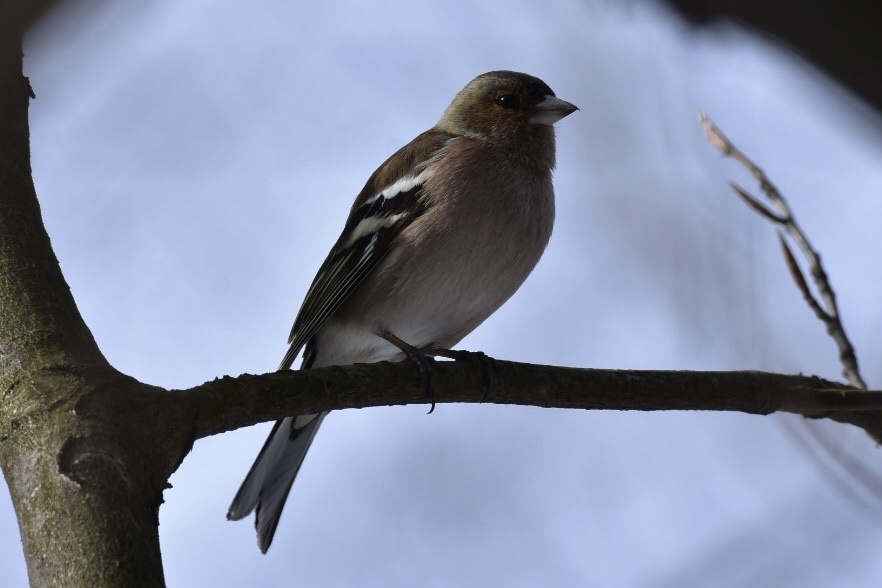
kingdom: Animalia
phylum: Chordata
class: Aves
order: Passeriformes
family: Fringillidae
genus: Fringilla
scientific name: Fringilla coelebs
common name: Common chaffinch
